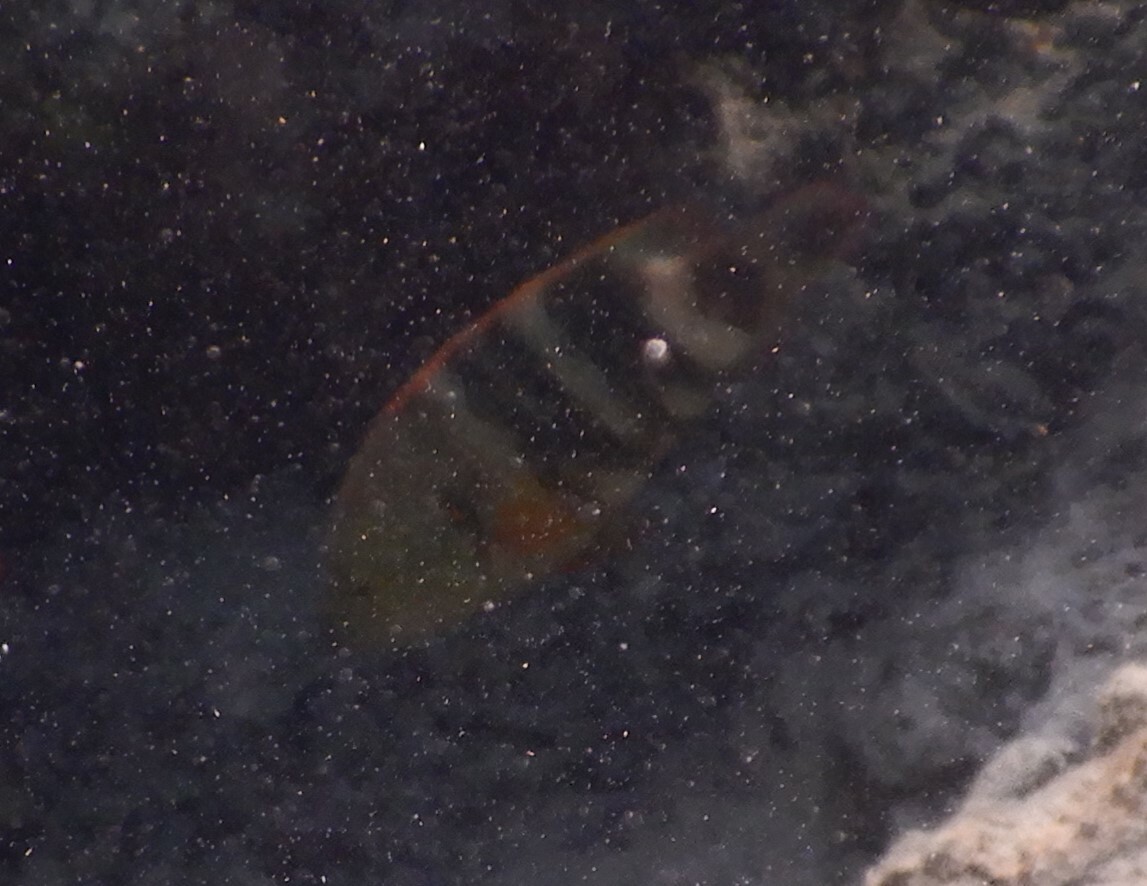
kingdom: Animalia
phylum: Chordata
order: Perciformes
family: Labridae
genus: Cheilinus
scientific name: Cheilinus lunulatus
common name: Broomtail wrasse
